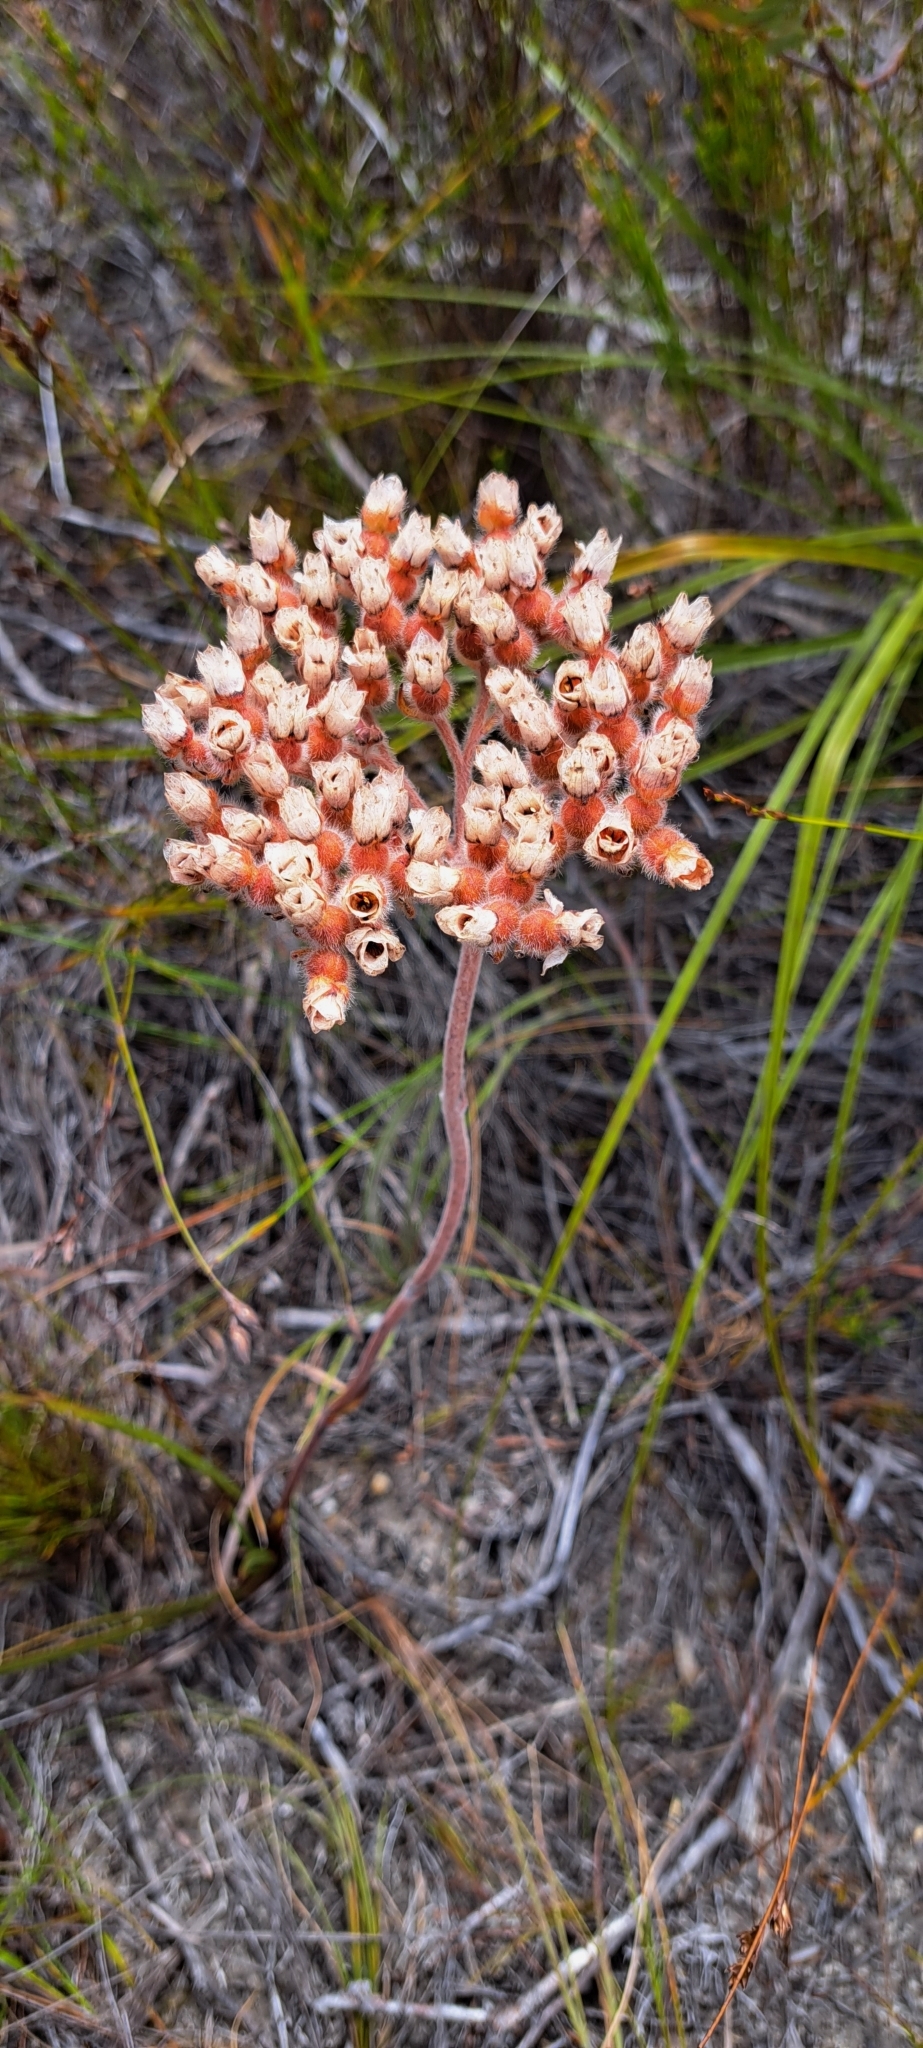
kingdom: Plantae
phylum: Tracheophyta
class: Liliopsida
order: Commelinales
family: Haemodoraceae
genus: Dilatris
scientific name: Dilatris pillansii
